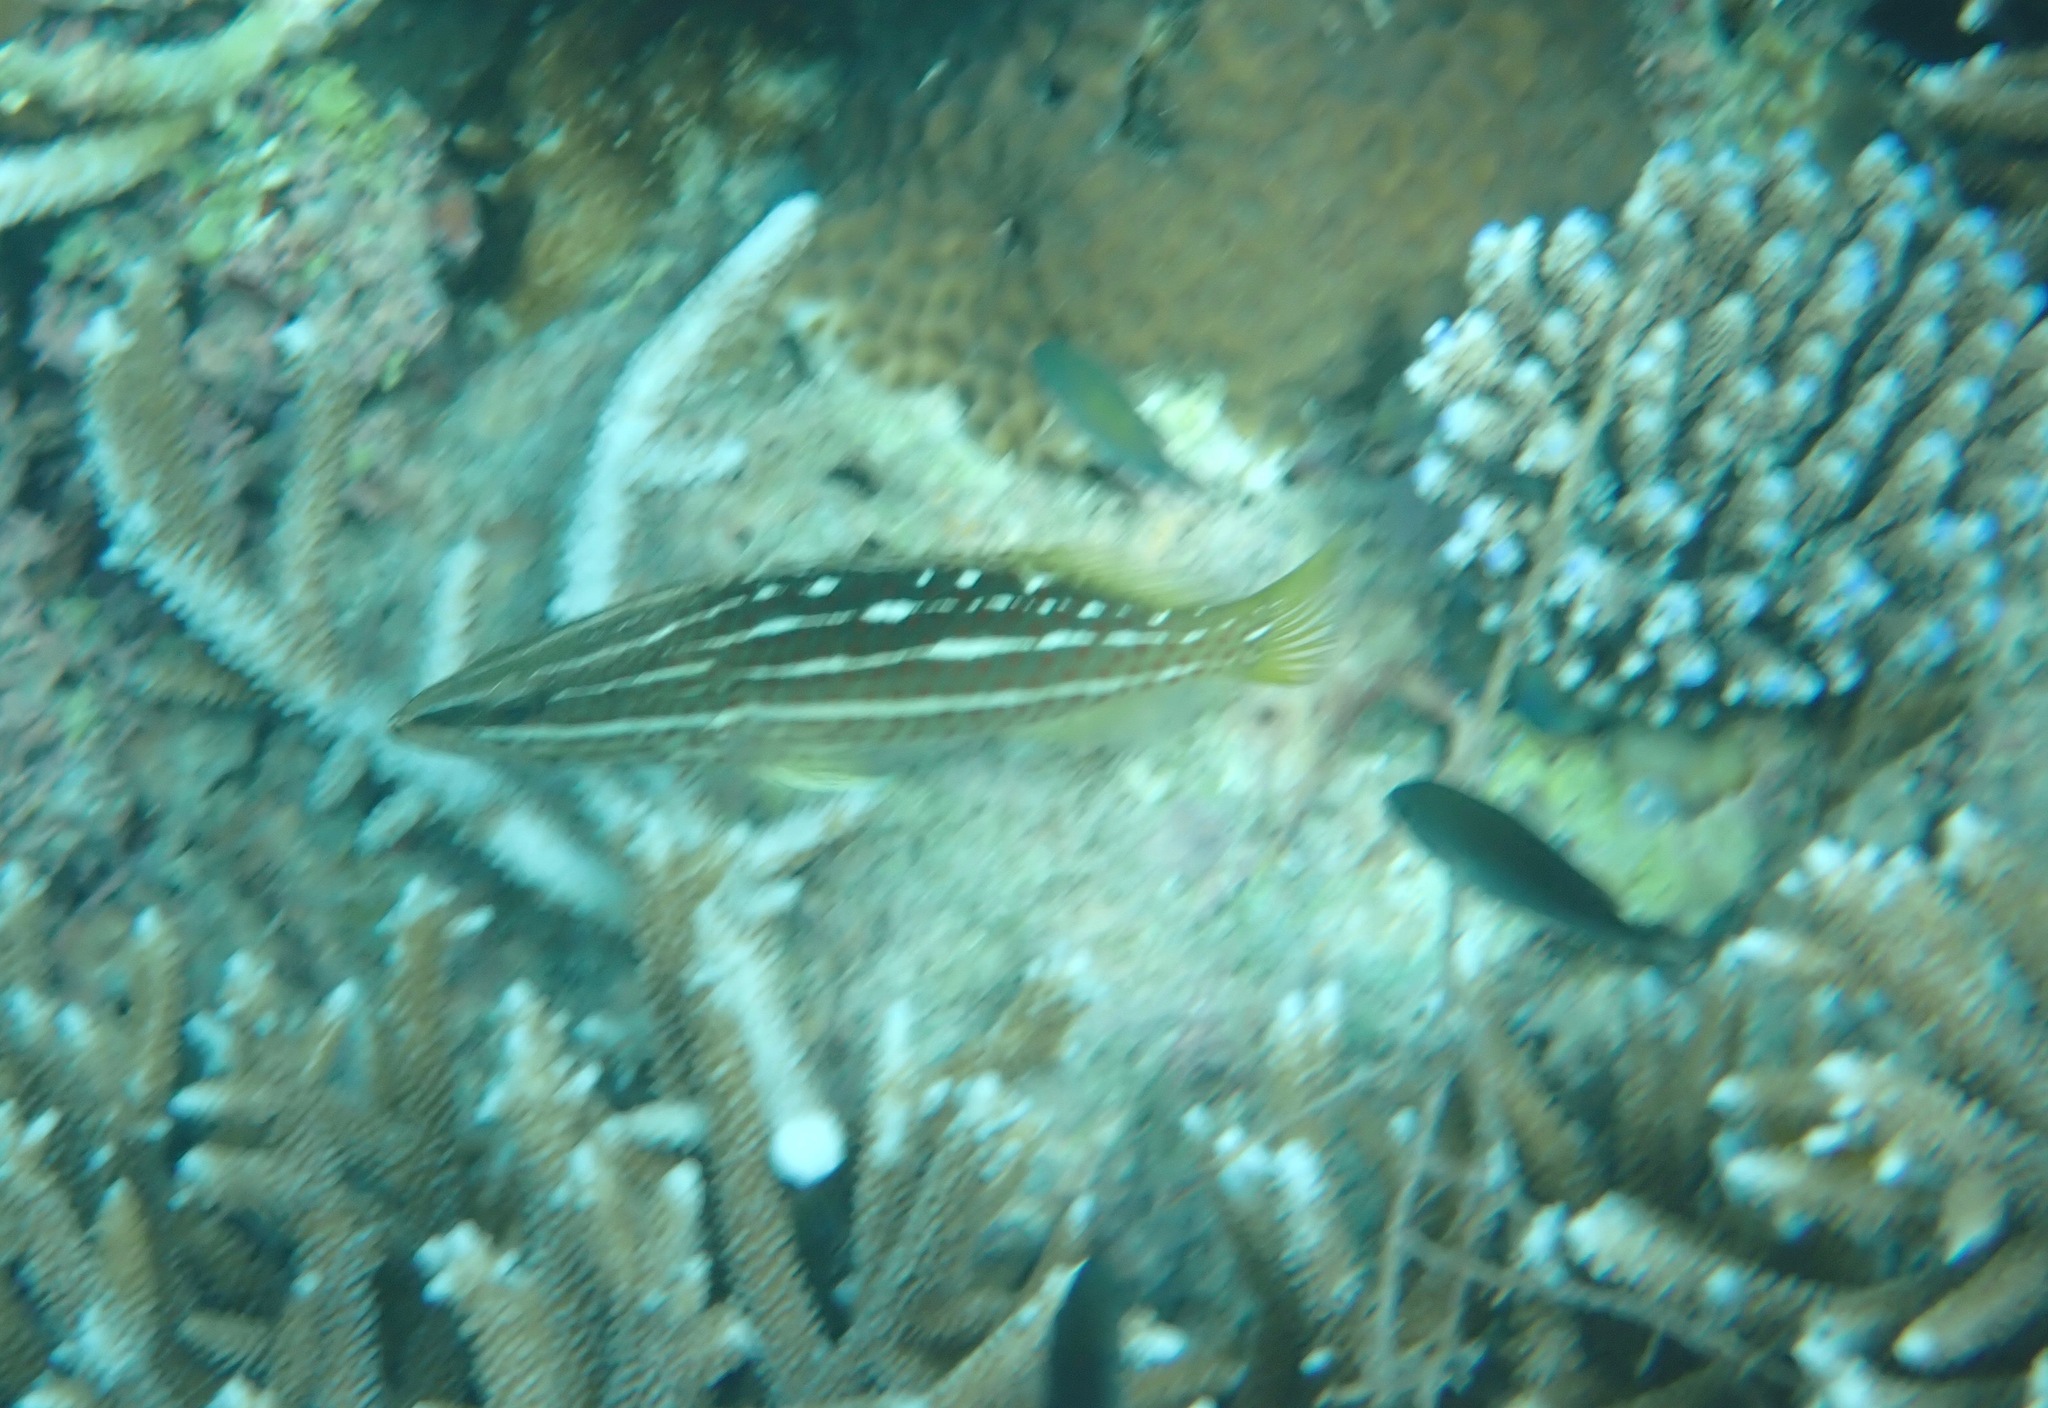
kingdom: Animalia
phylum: Chordata
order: Perciformes
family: Serranidae
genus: Anyperodon
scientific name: Anyperodon leucogrammicus
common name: Slender grouper
